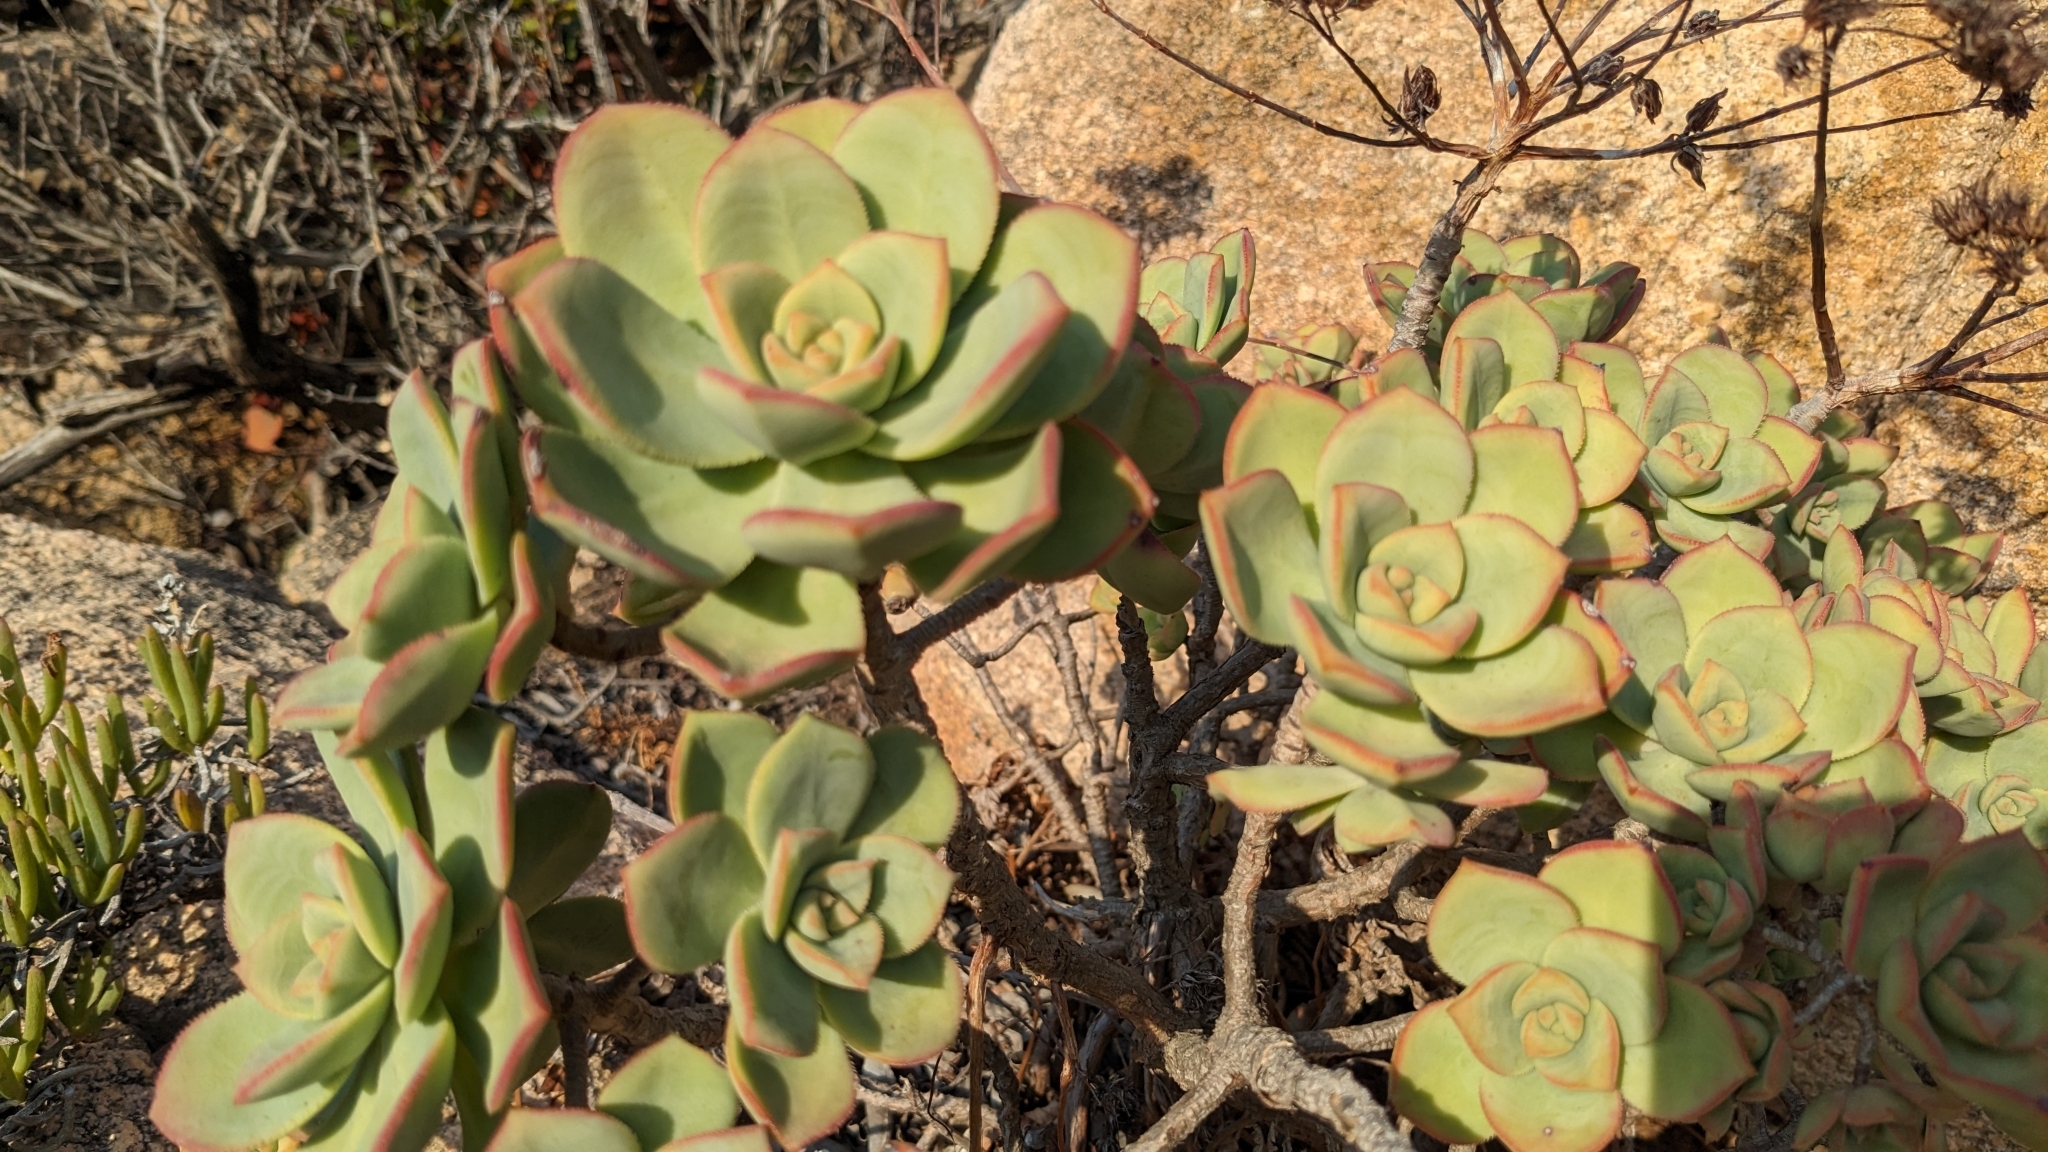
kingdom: Plantae
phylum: Tracheophyta
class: Magnoliopsida
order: Saxifragales
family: Crassulaceae
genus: Aeonium
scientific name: Aeonium haworthii
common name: Haworth's aeonium
